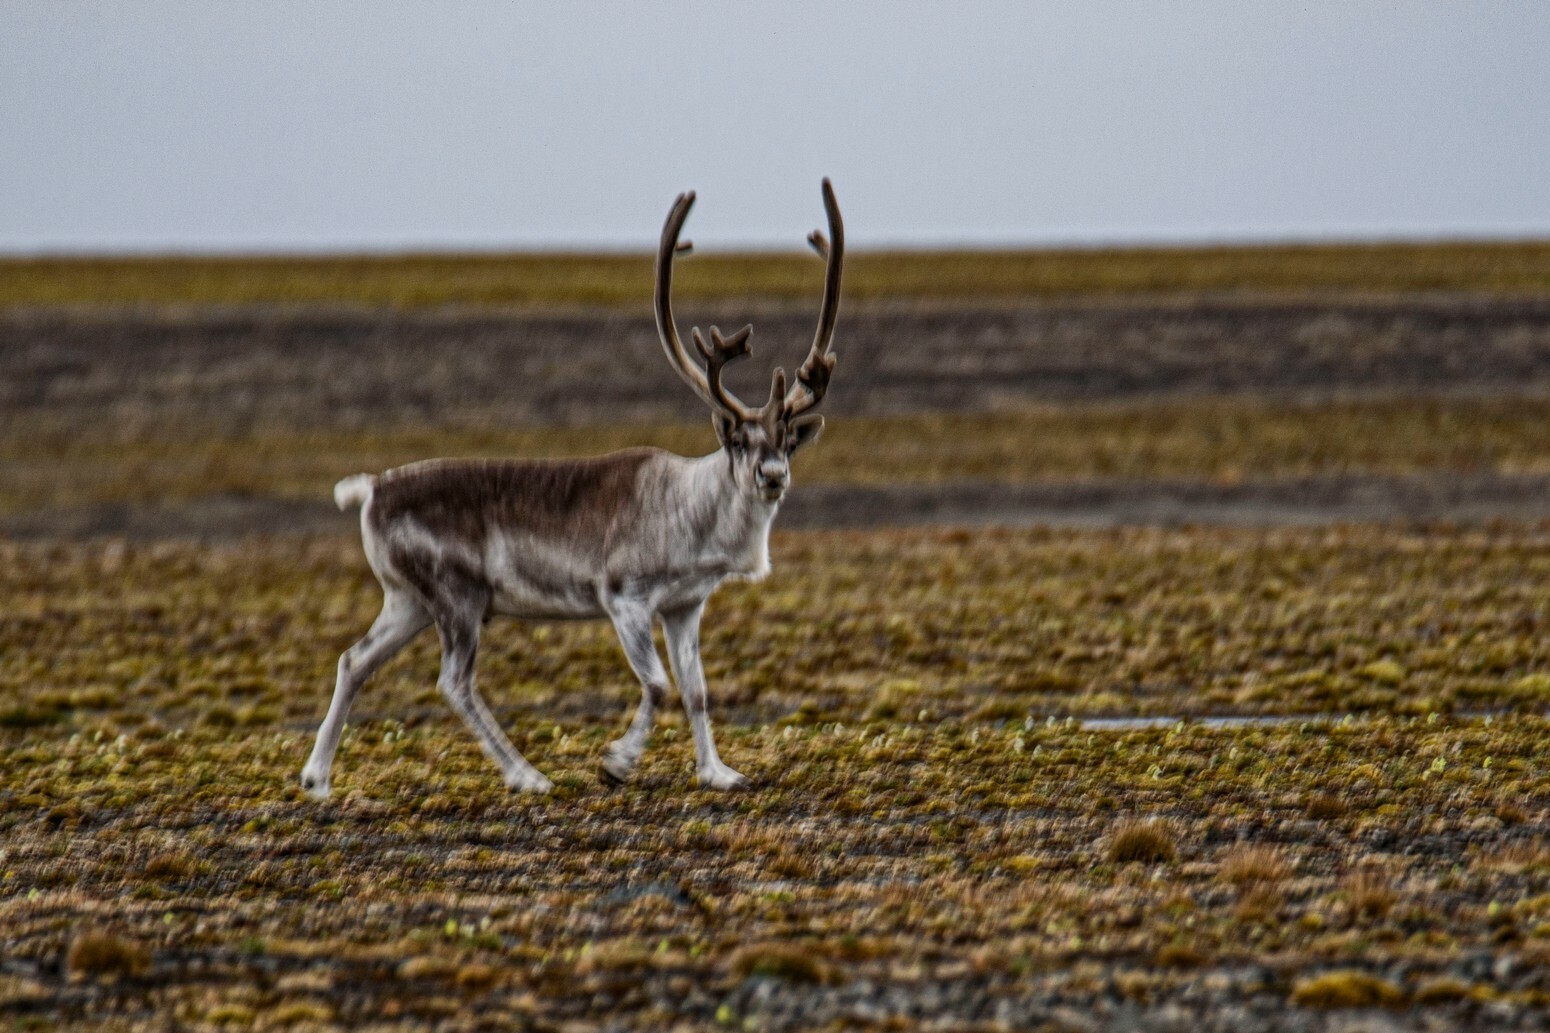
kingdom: Animalia
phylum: Chordata
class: Mammalia
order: Artiodactyla
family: Cervidae
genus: Rangifer
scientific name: Rangifer tarandus
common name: Reindeer
